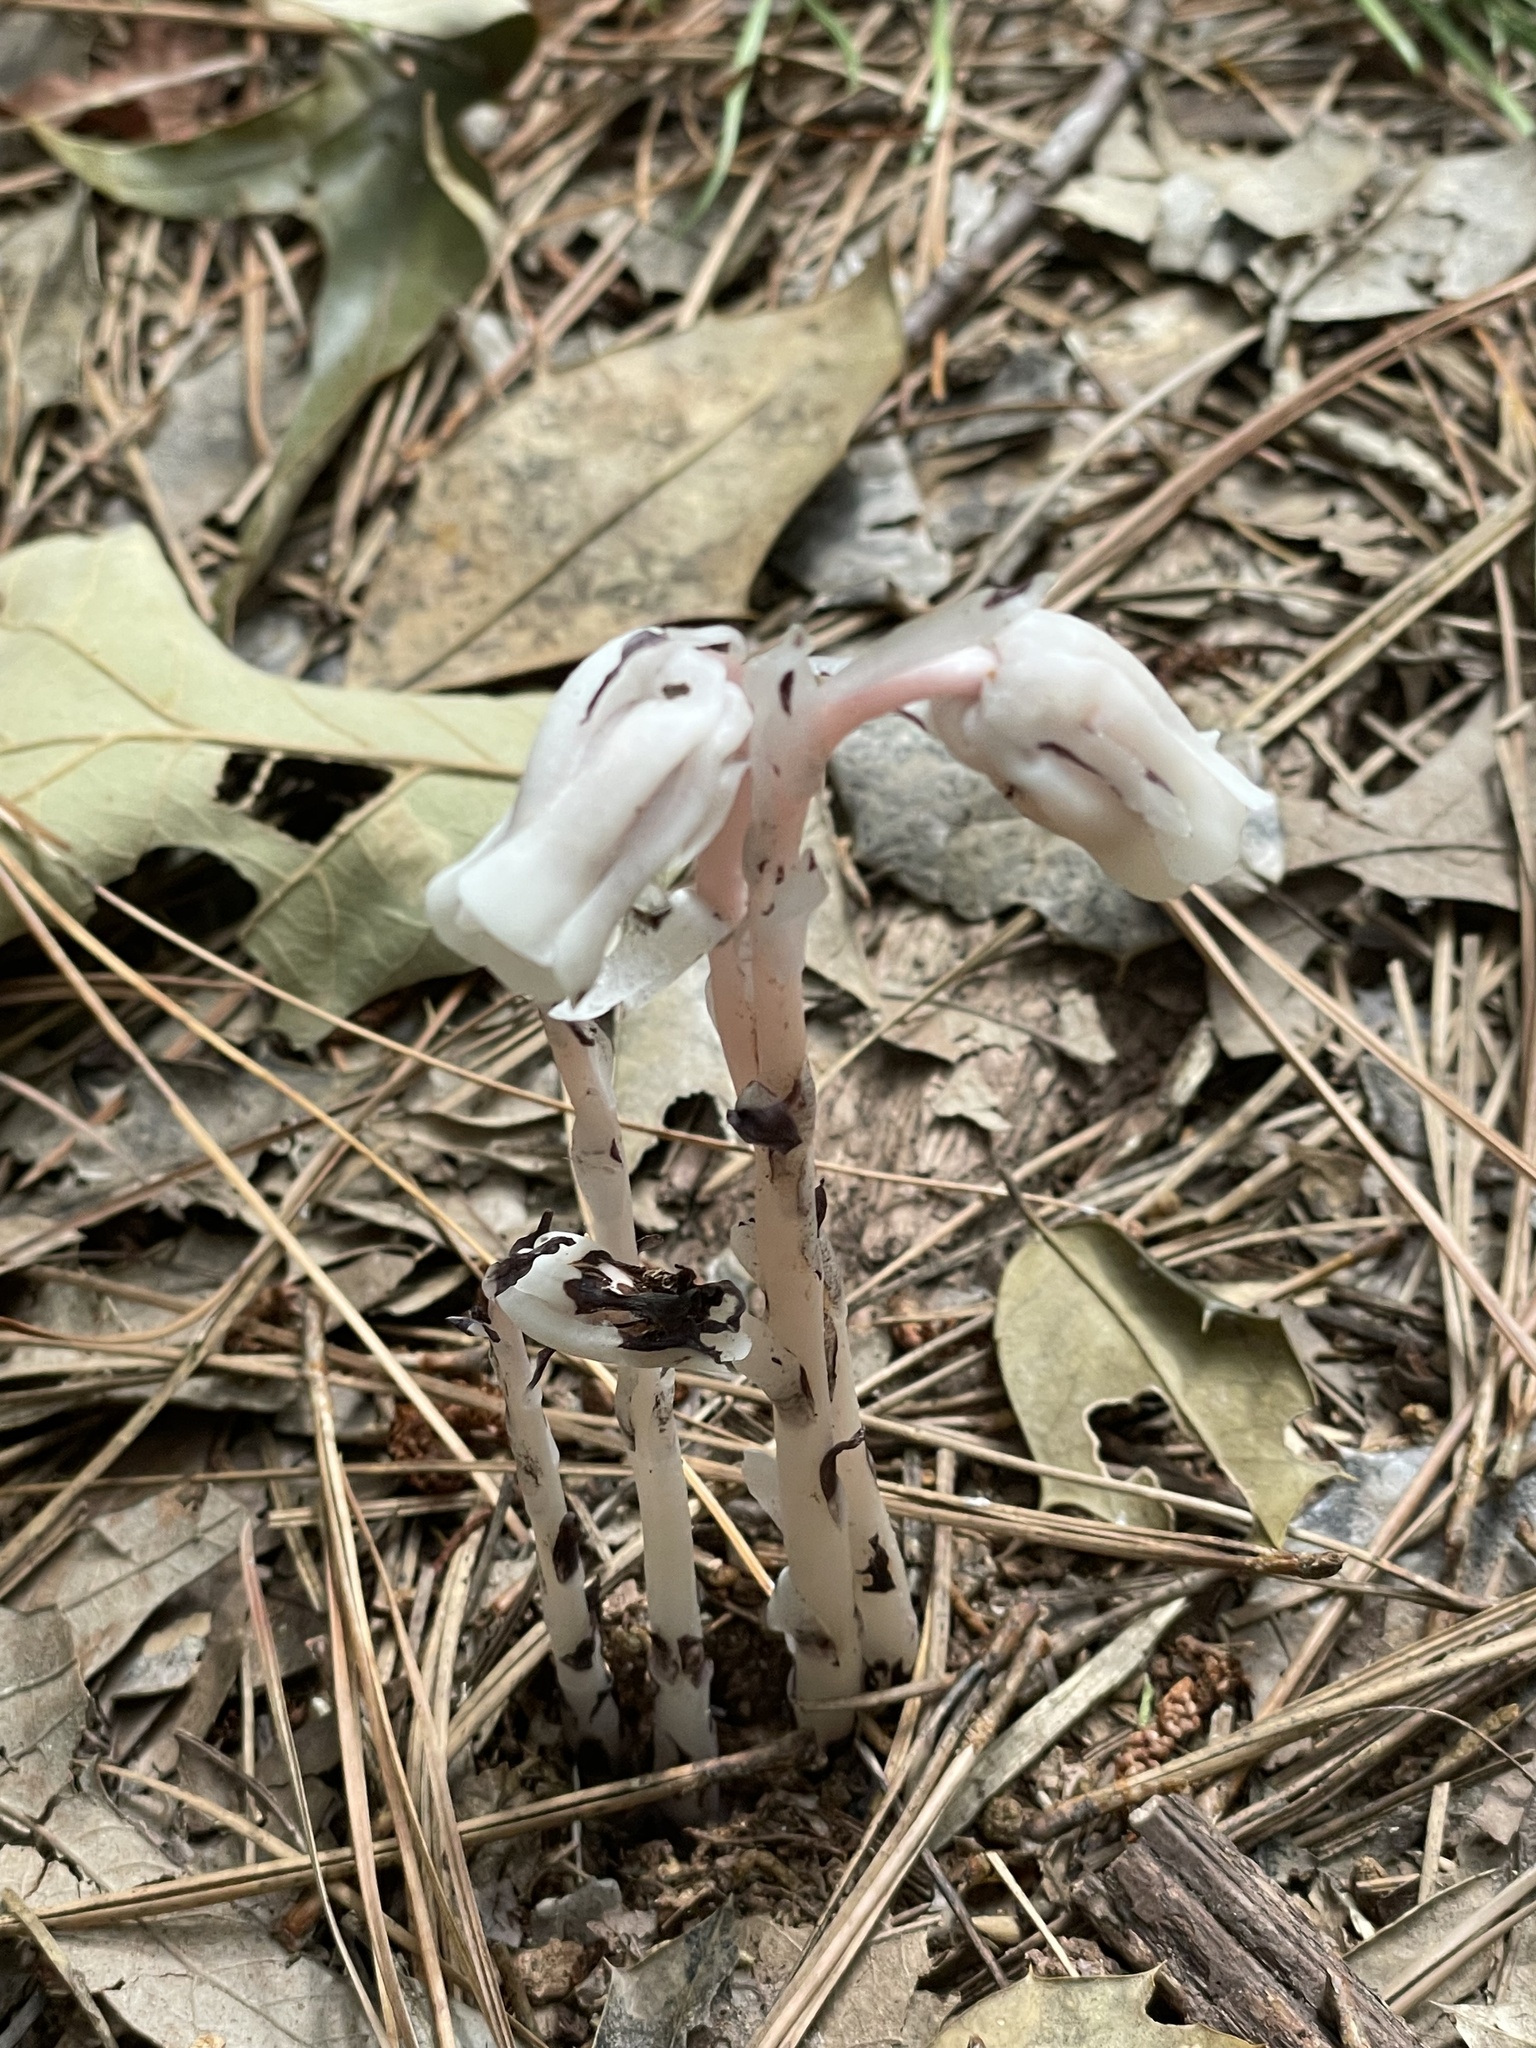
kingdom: Plantae
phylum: Tracheophyta
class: Magnoliopsida
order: Ericales
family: Ericaceae
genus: Monotropa
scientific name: Monotropa uniflora
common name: Convulsion root
